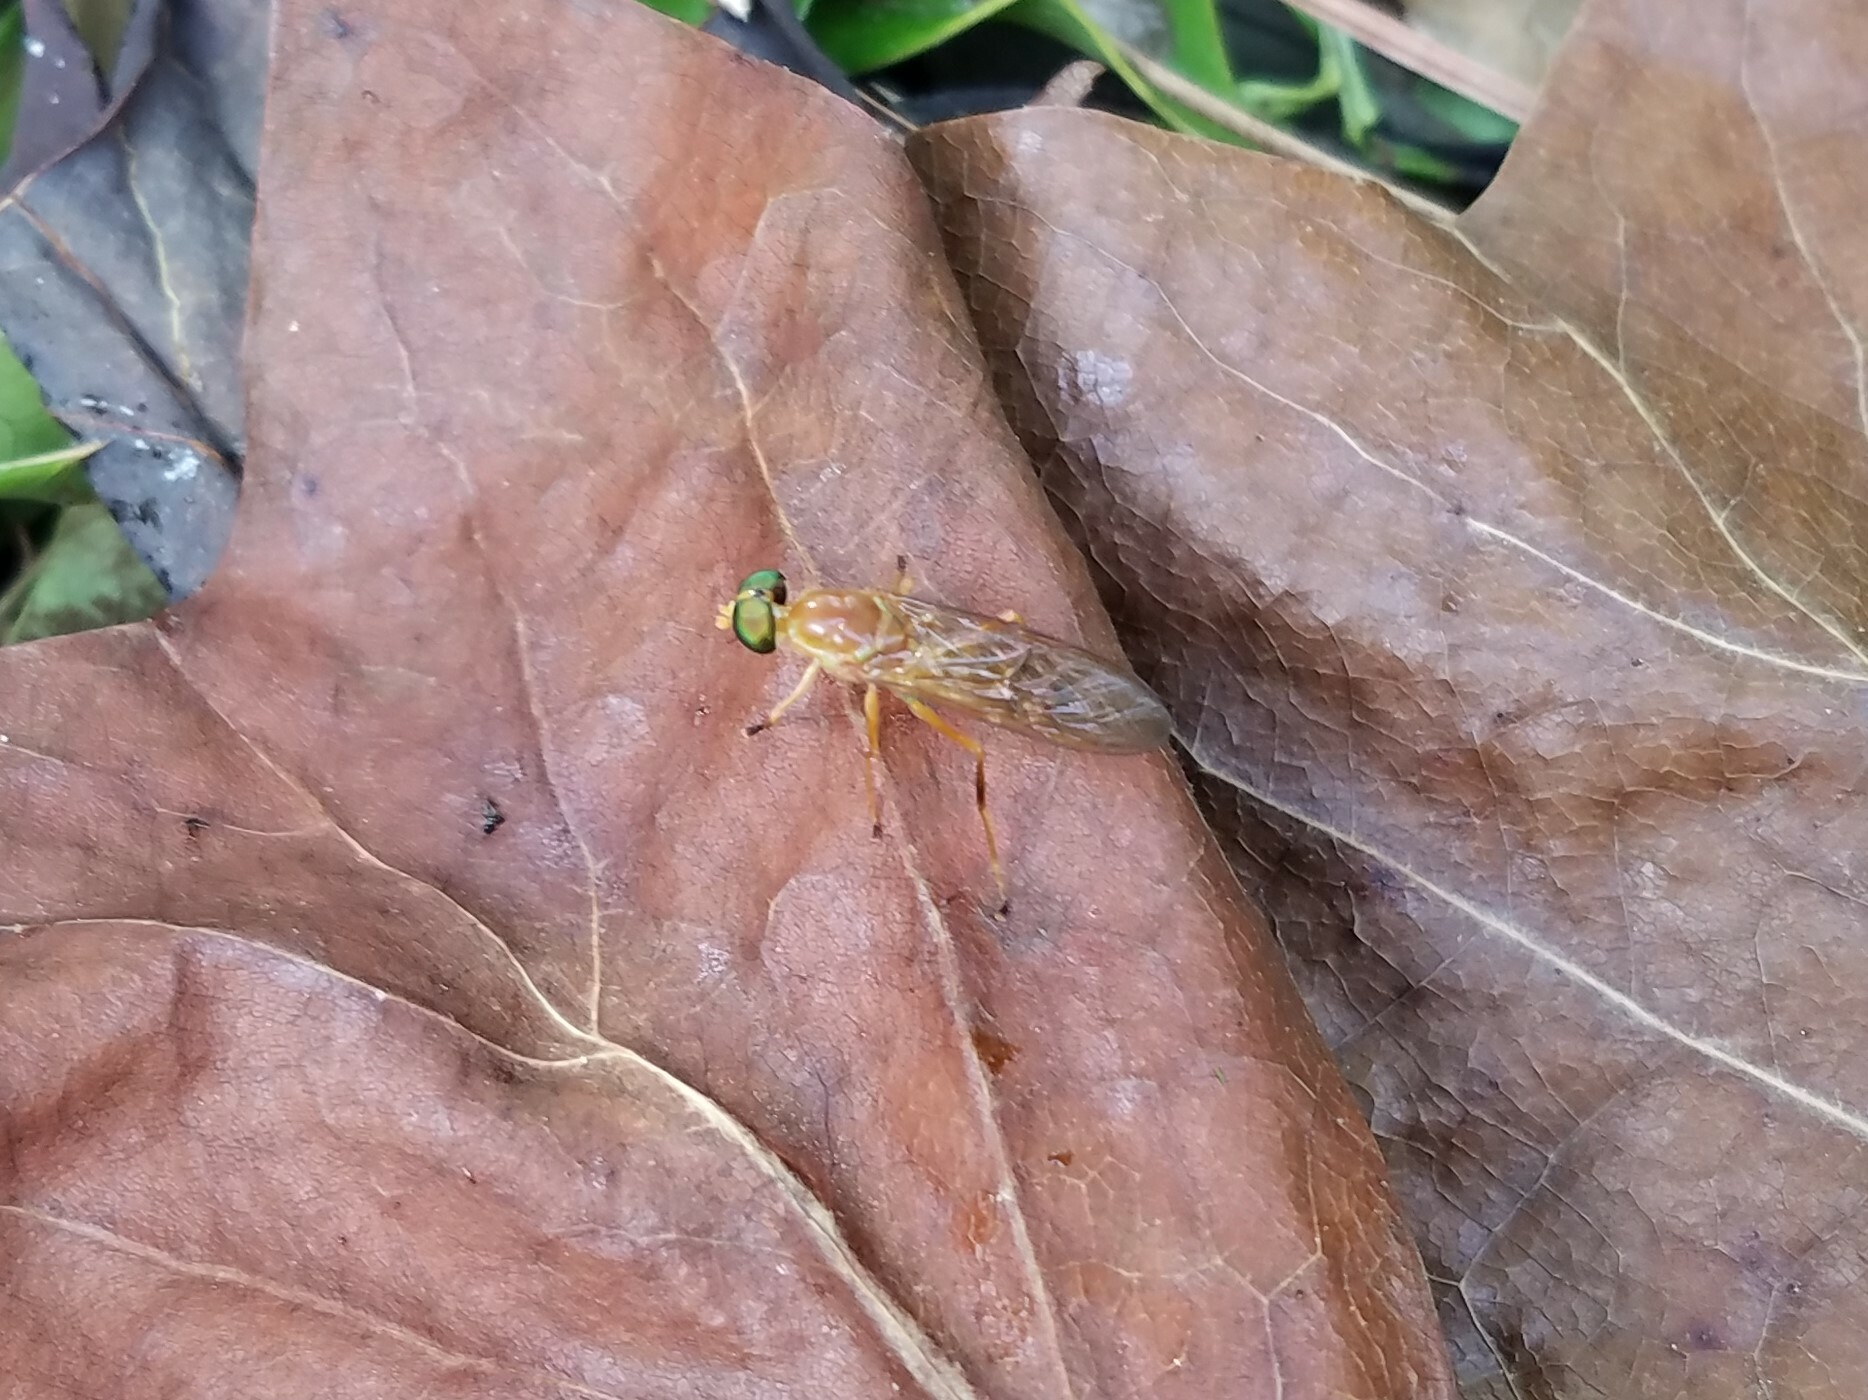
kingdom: Animalia
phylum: Arthropoda
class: Insecta
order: Diptera
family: Stratiomyidae
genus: Ptecticus
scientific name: Ptecticus trivittatus
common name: Compost fly
